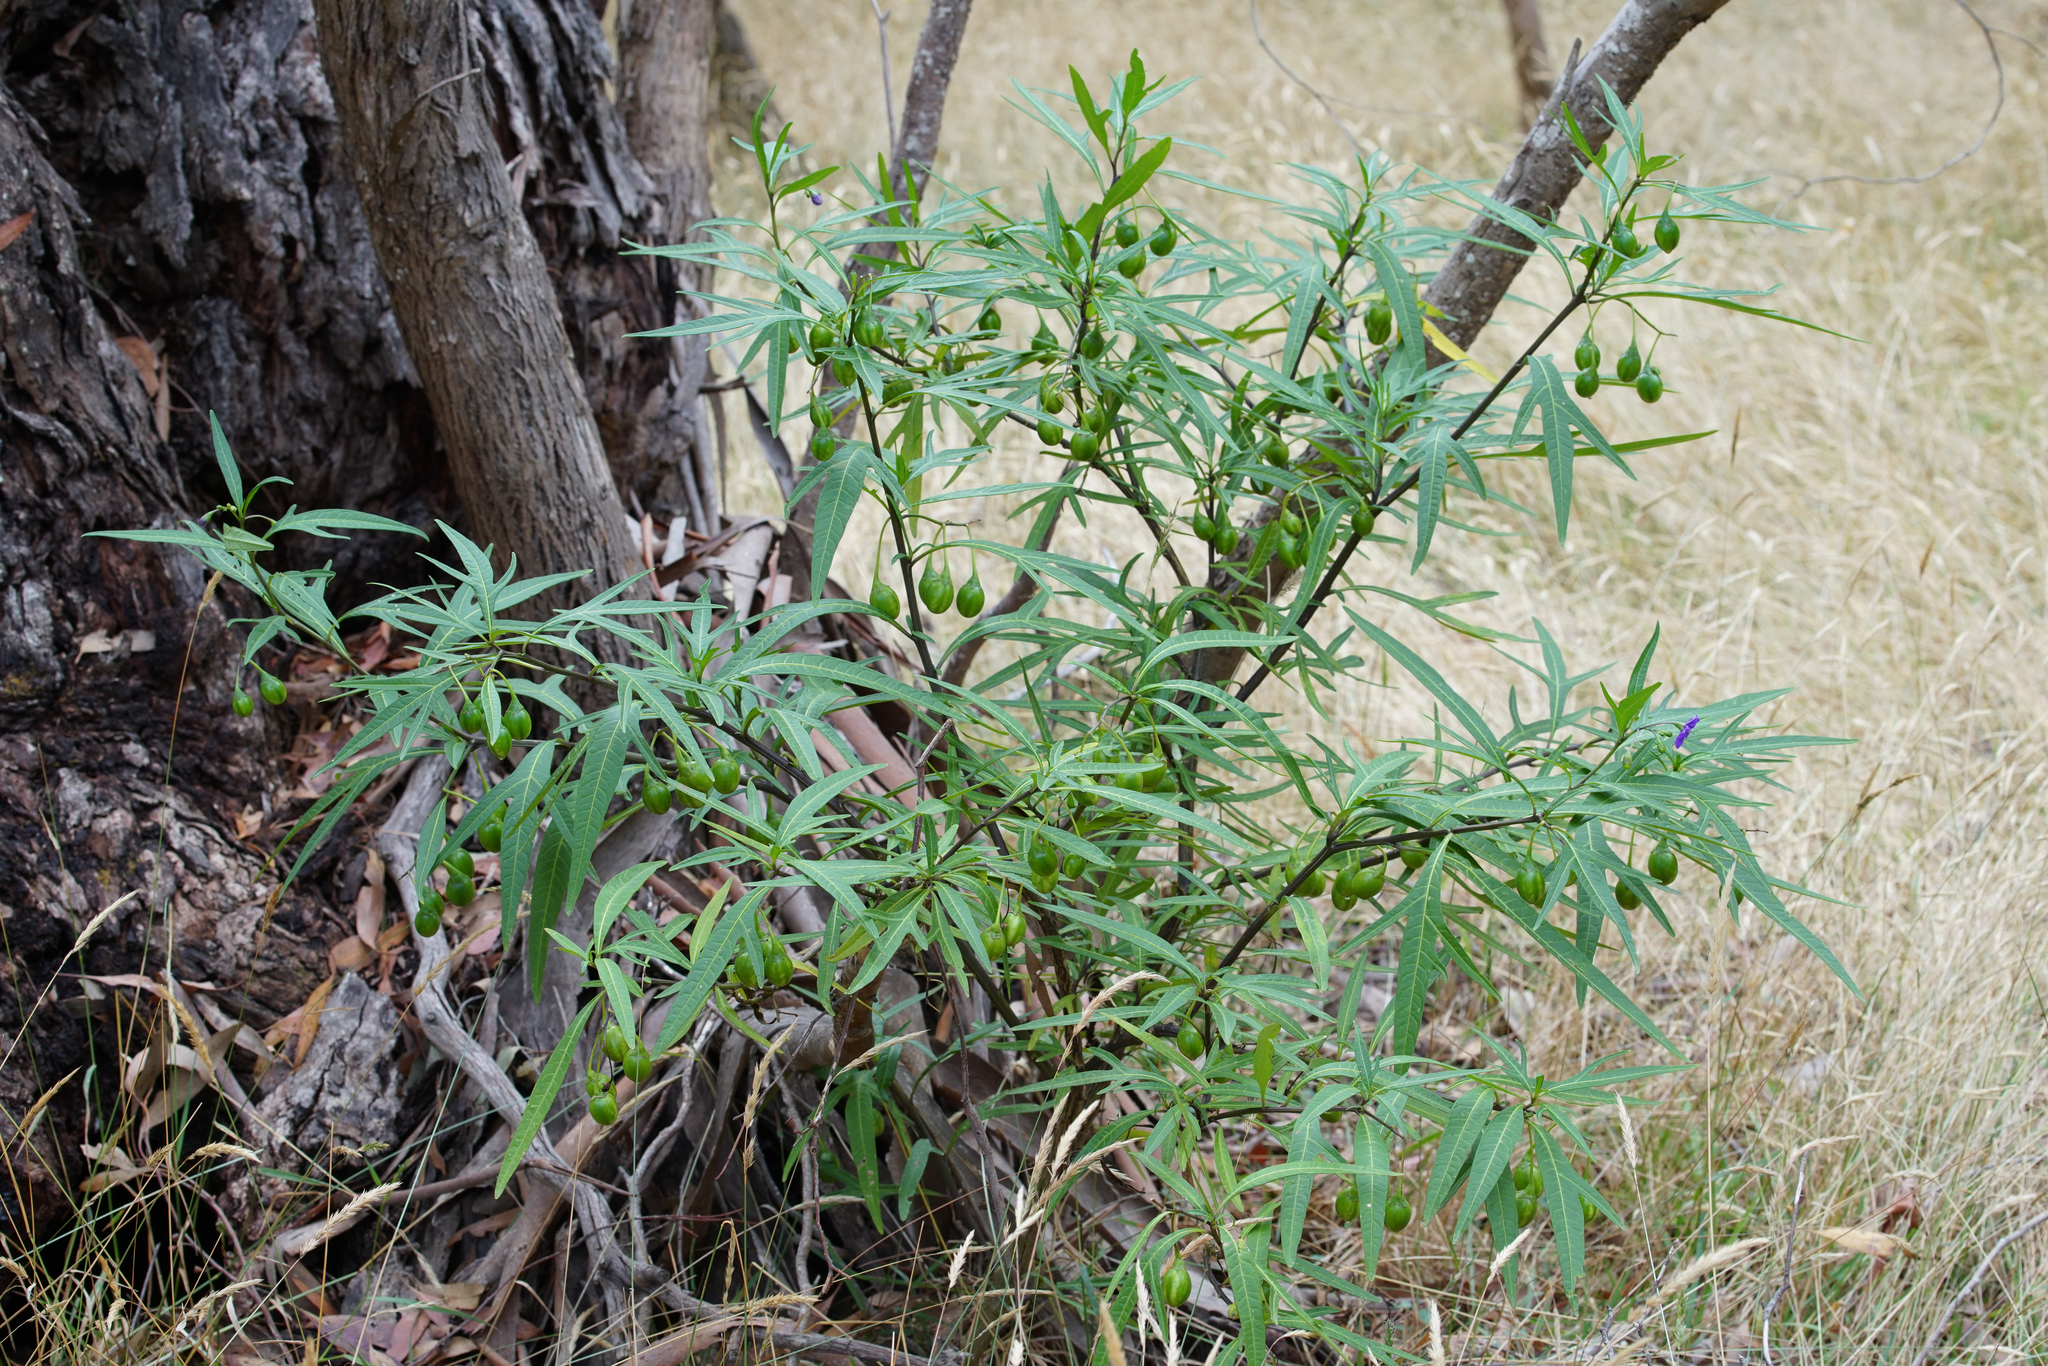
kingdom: Plantae
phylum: Tracheophyta
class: Magnoliopsida
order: Solanales
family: Solanaceae
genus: Solanum
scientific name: Solanum laciniatum
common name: Kangaroo-apple
